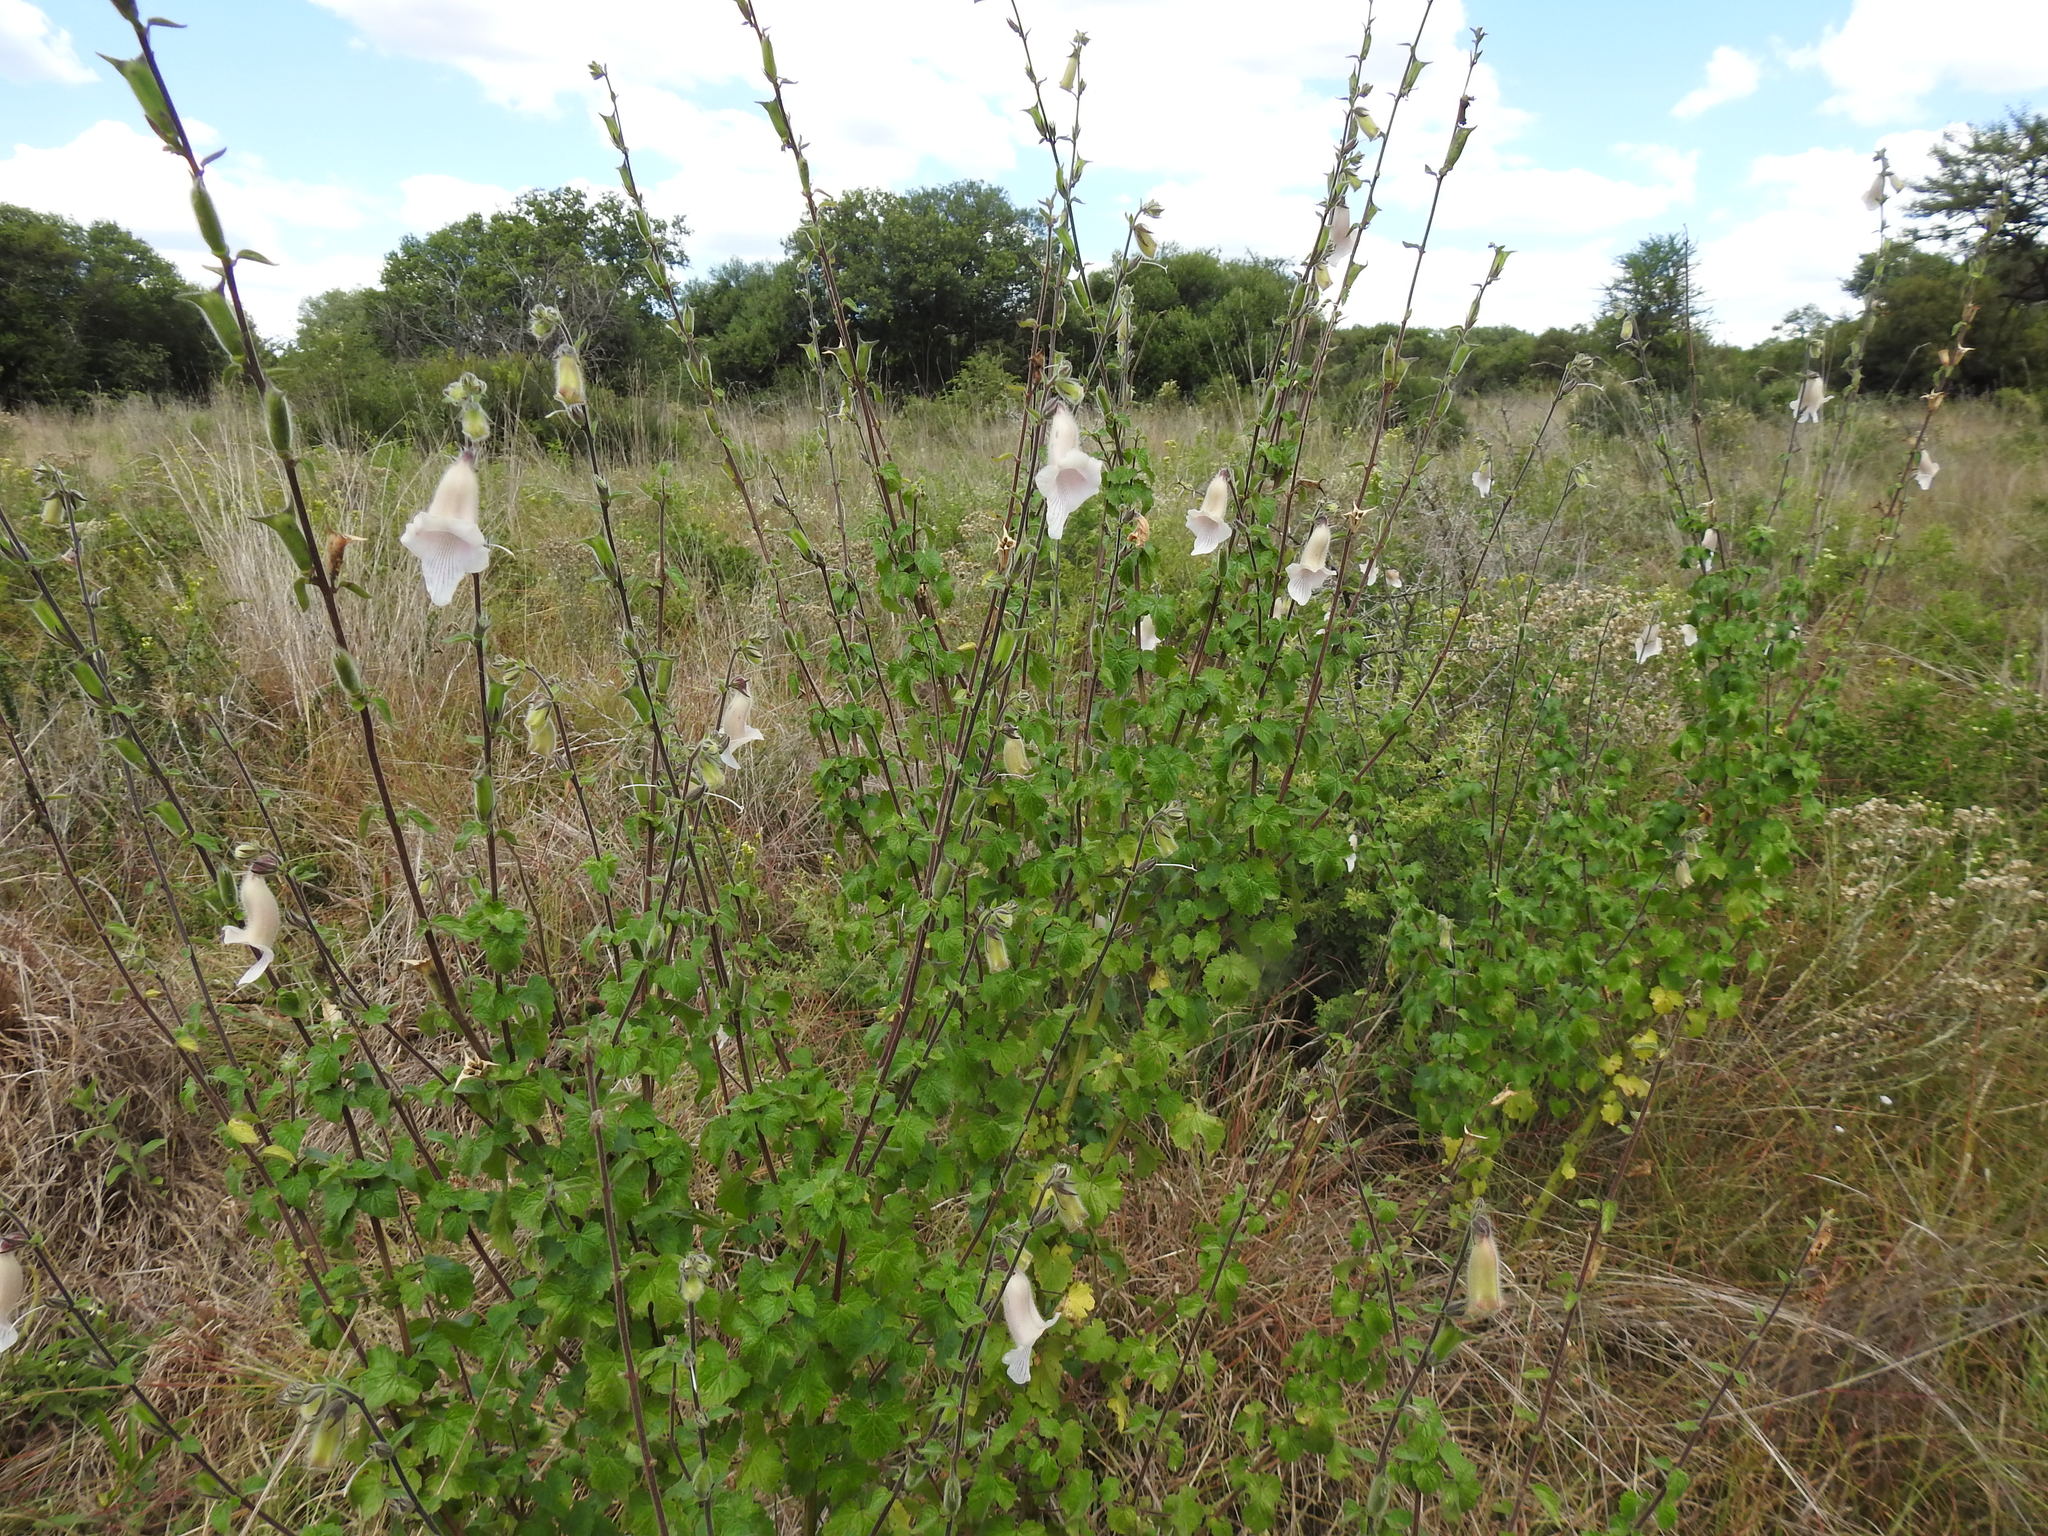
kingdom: Plantae
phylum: Tracheophyta
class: Magnoliopsida
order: Lamiales
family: Pedaliaceae
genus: Sesamum
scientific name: Sesamum trilobum
